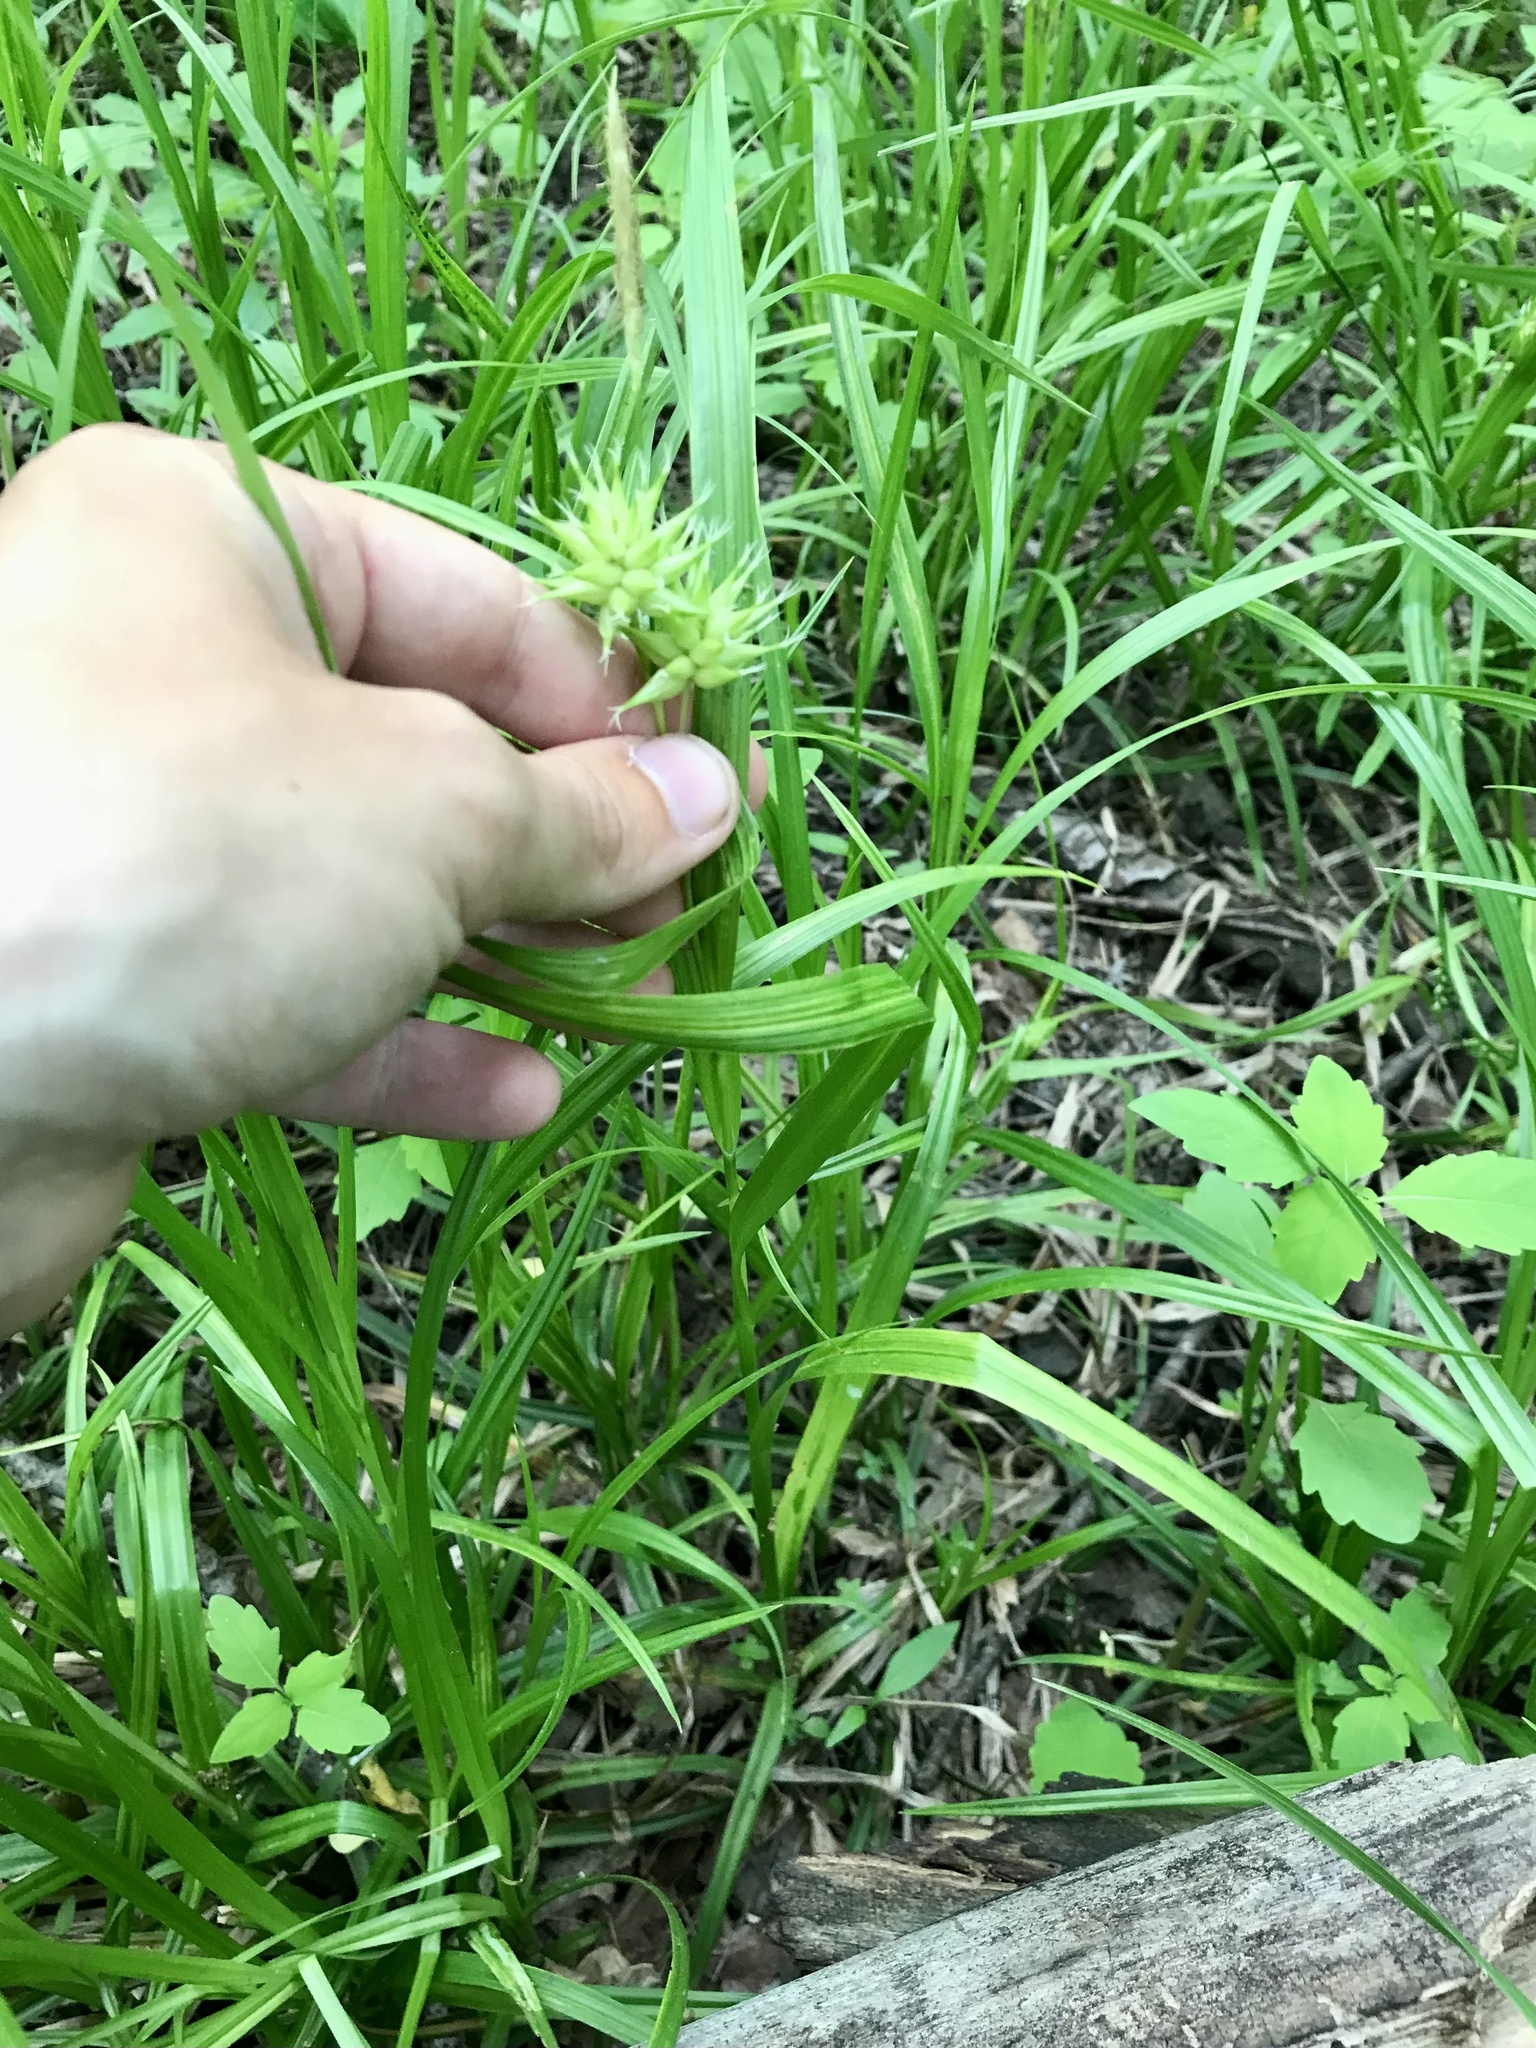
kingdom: Plantae
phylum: Tracheophyta
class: Liliopsida
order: Poales
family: Cyperaceae
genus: Carex
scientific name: Carex grayi
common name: Asa gray's sedge
